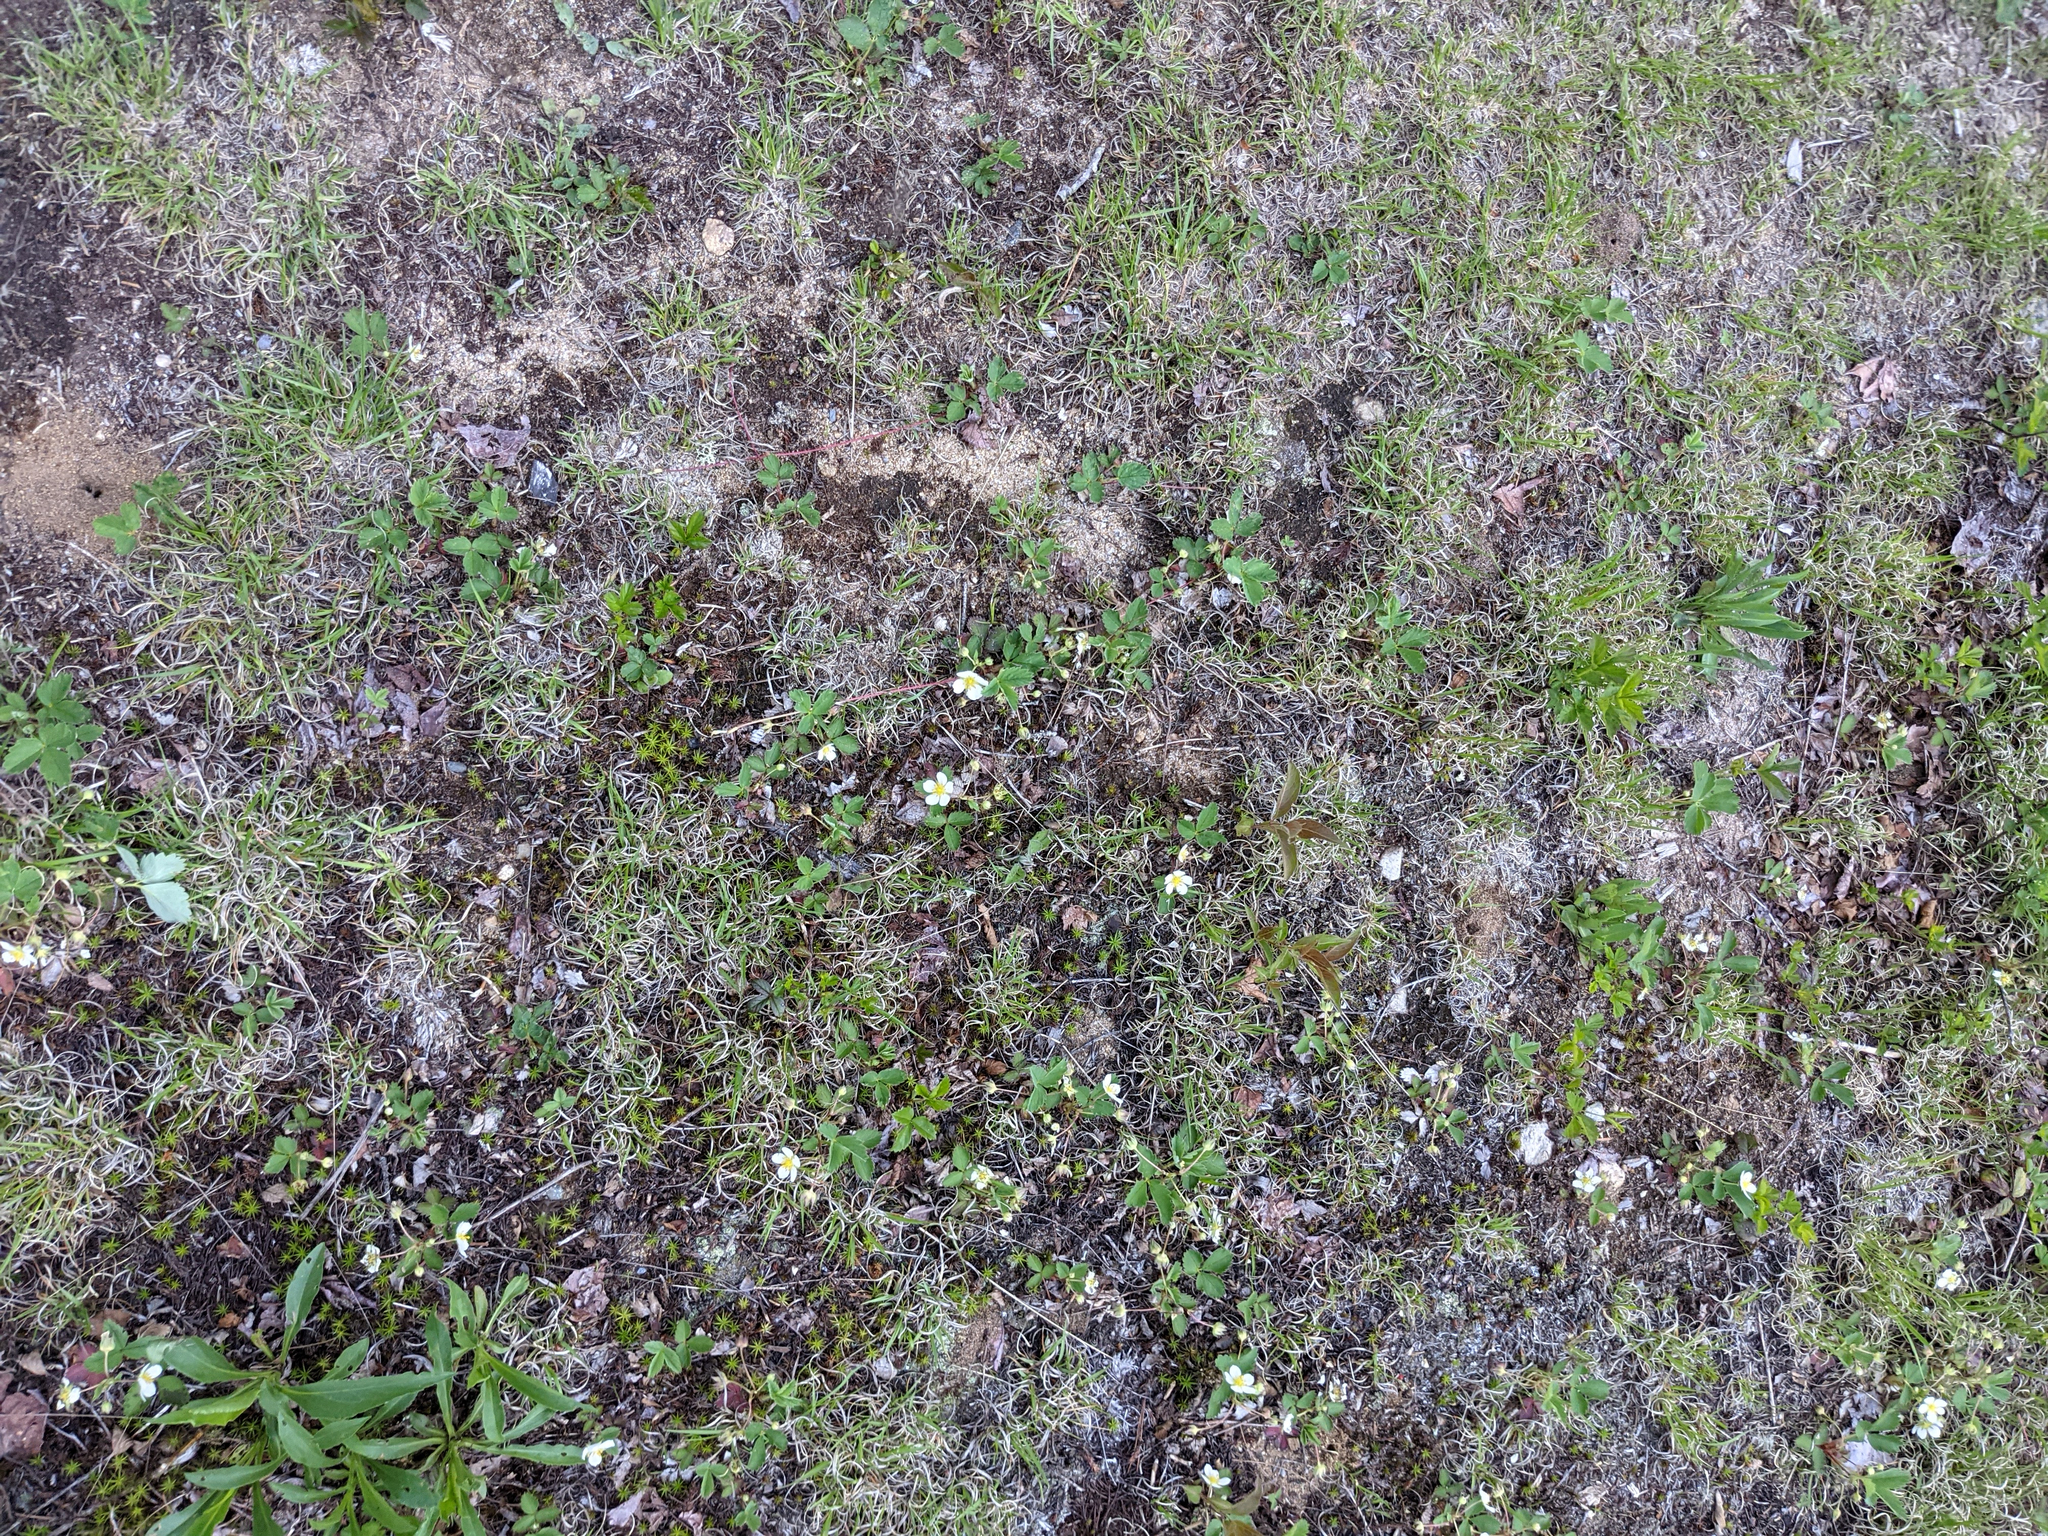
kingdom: Fungi
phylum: Ascomycota
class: Lecanoromycetes
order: Lecanorales
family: Cladoniaceae
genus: Cladonia
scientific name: Cladonia cristatella
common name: British soldier lichen
